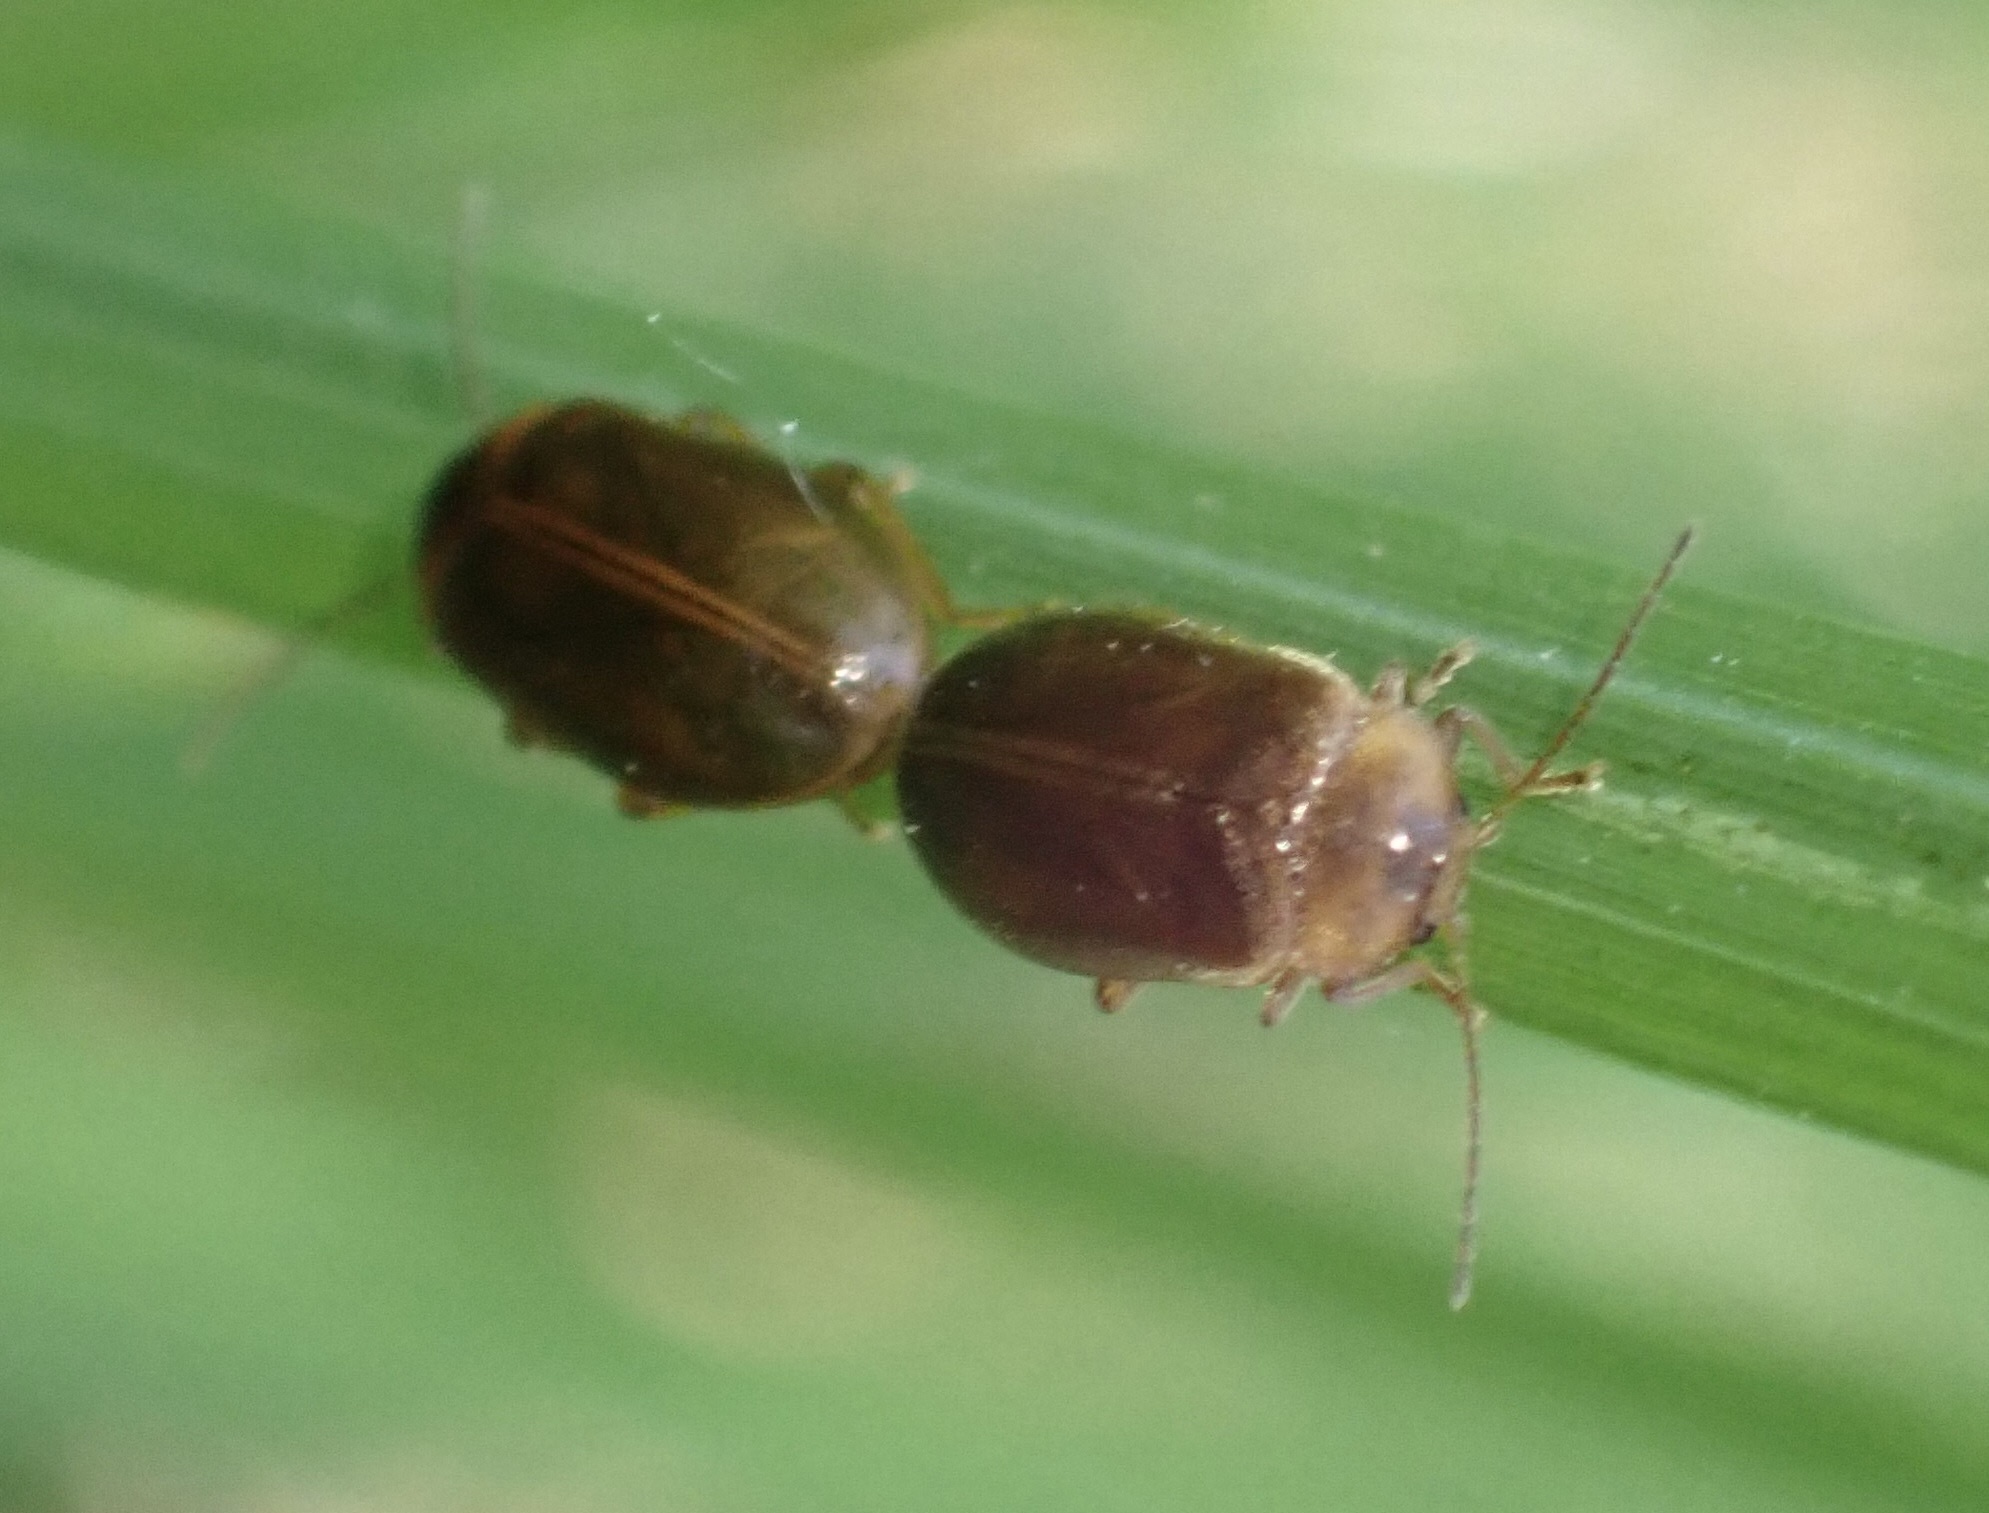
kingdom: Animalia
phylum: Arthropoda
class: Insecta
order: Coleoptera
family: Scirtidae
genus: Microcara
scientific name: Microcara testacea
